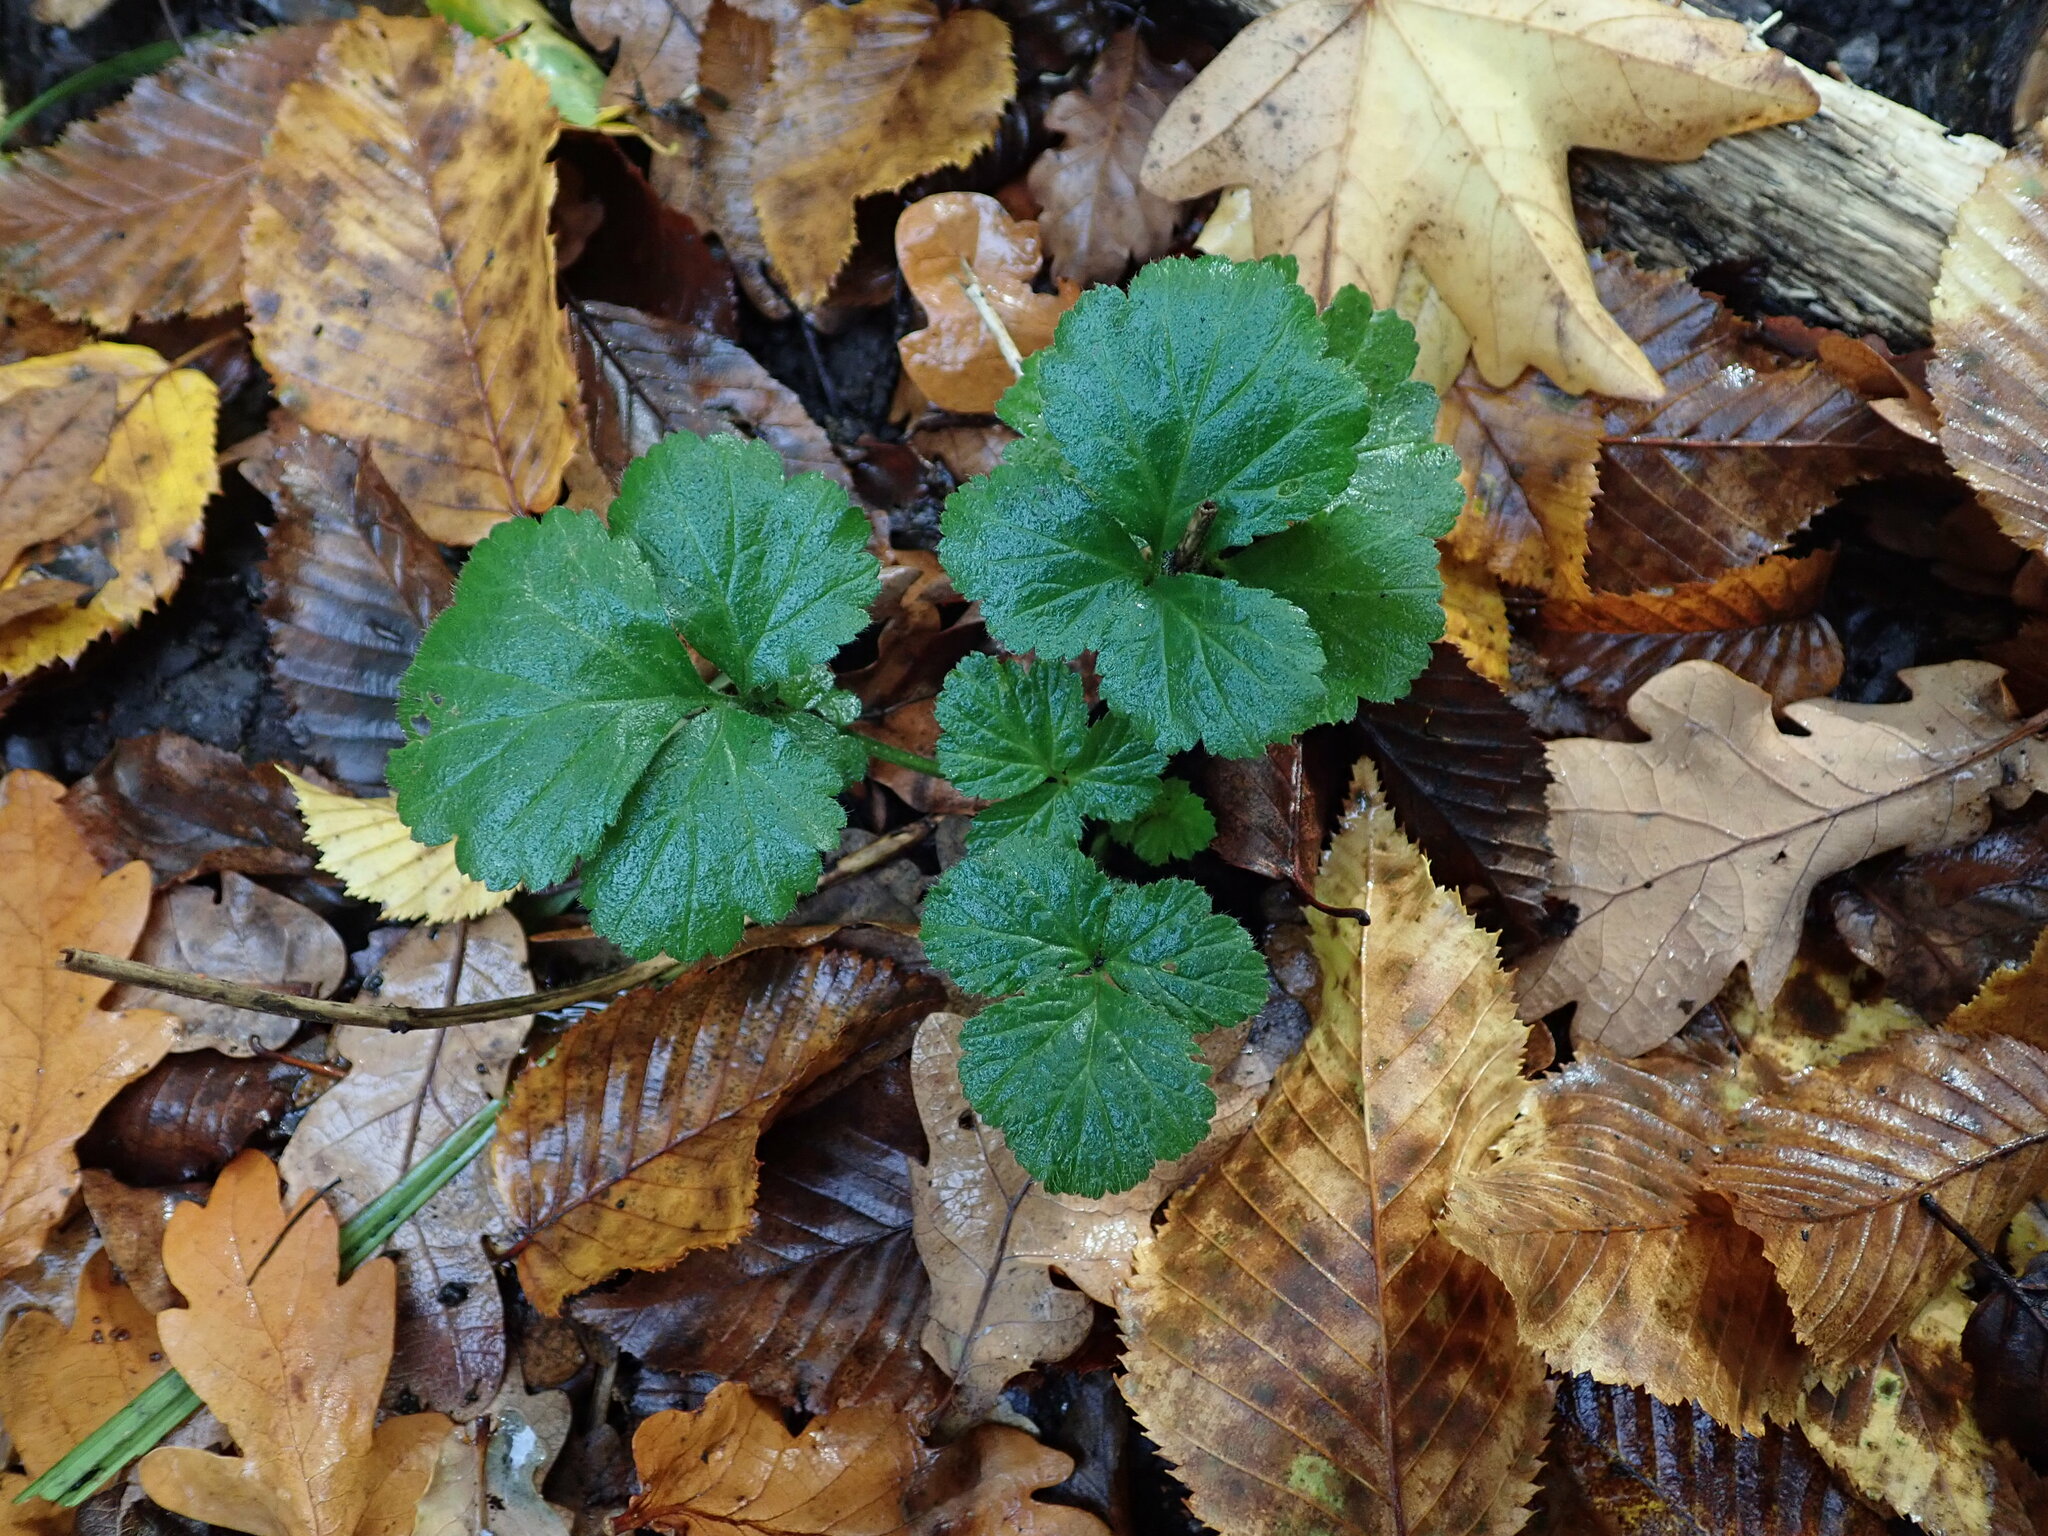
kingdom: Plantae
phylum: Tracheophyta
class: Magnoliopsida
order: Rosales
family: Rosaceae
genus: Geum
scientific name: Geum urbanum
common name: Wood avens
